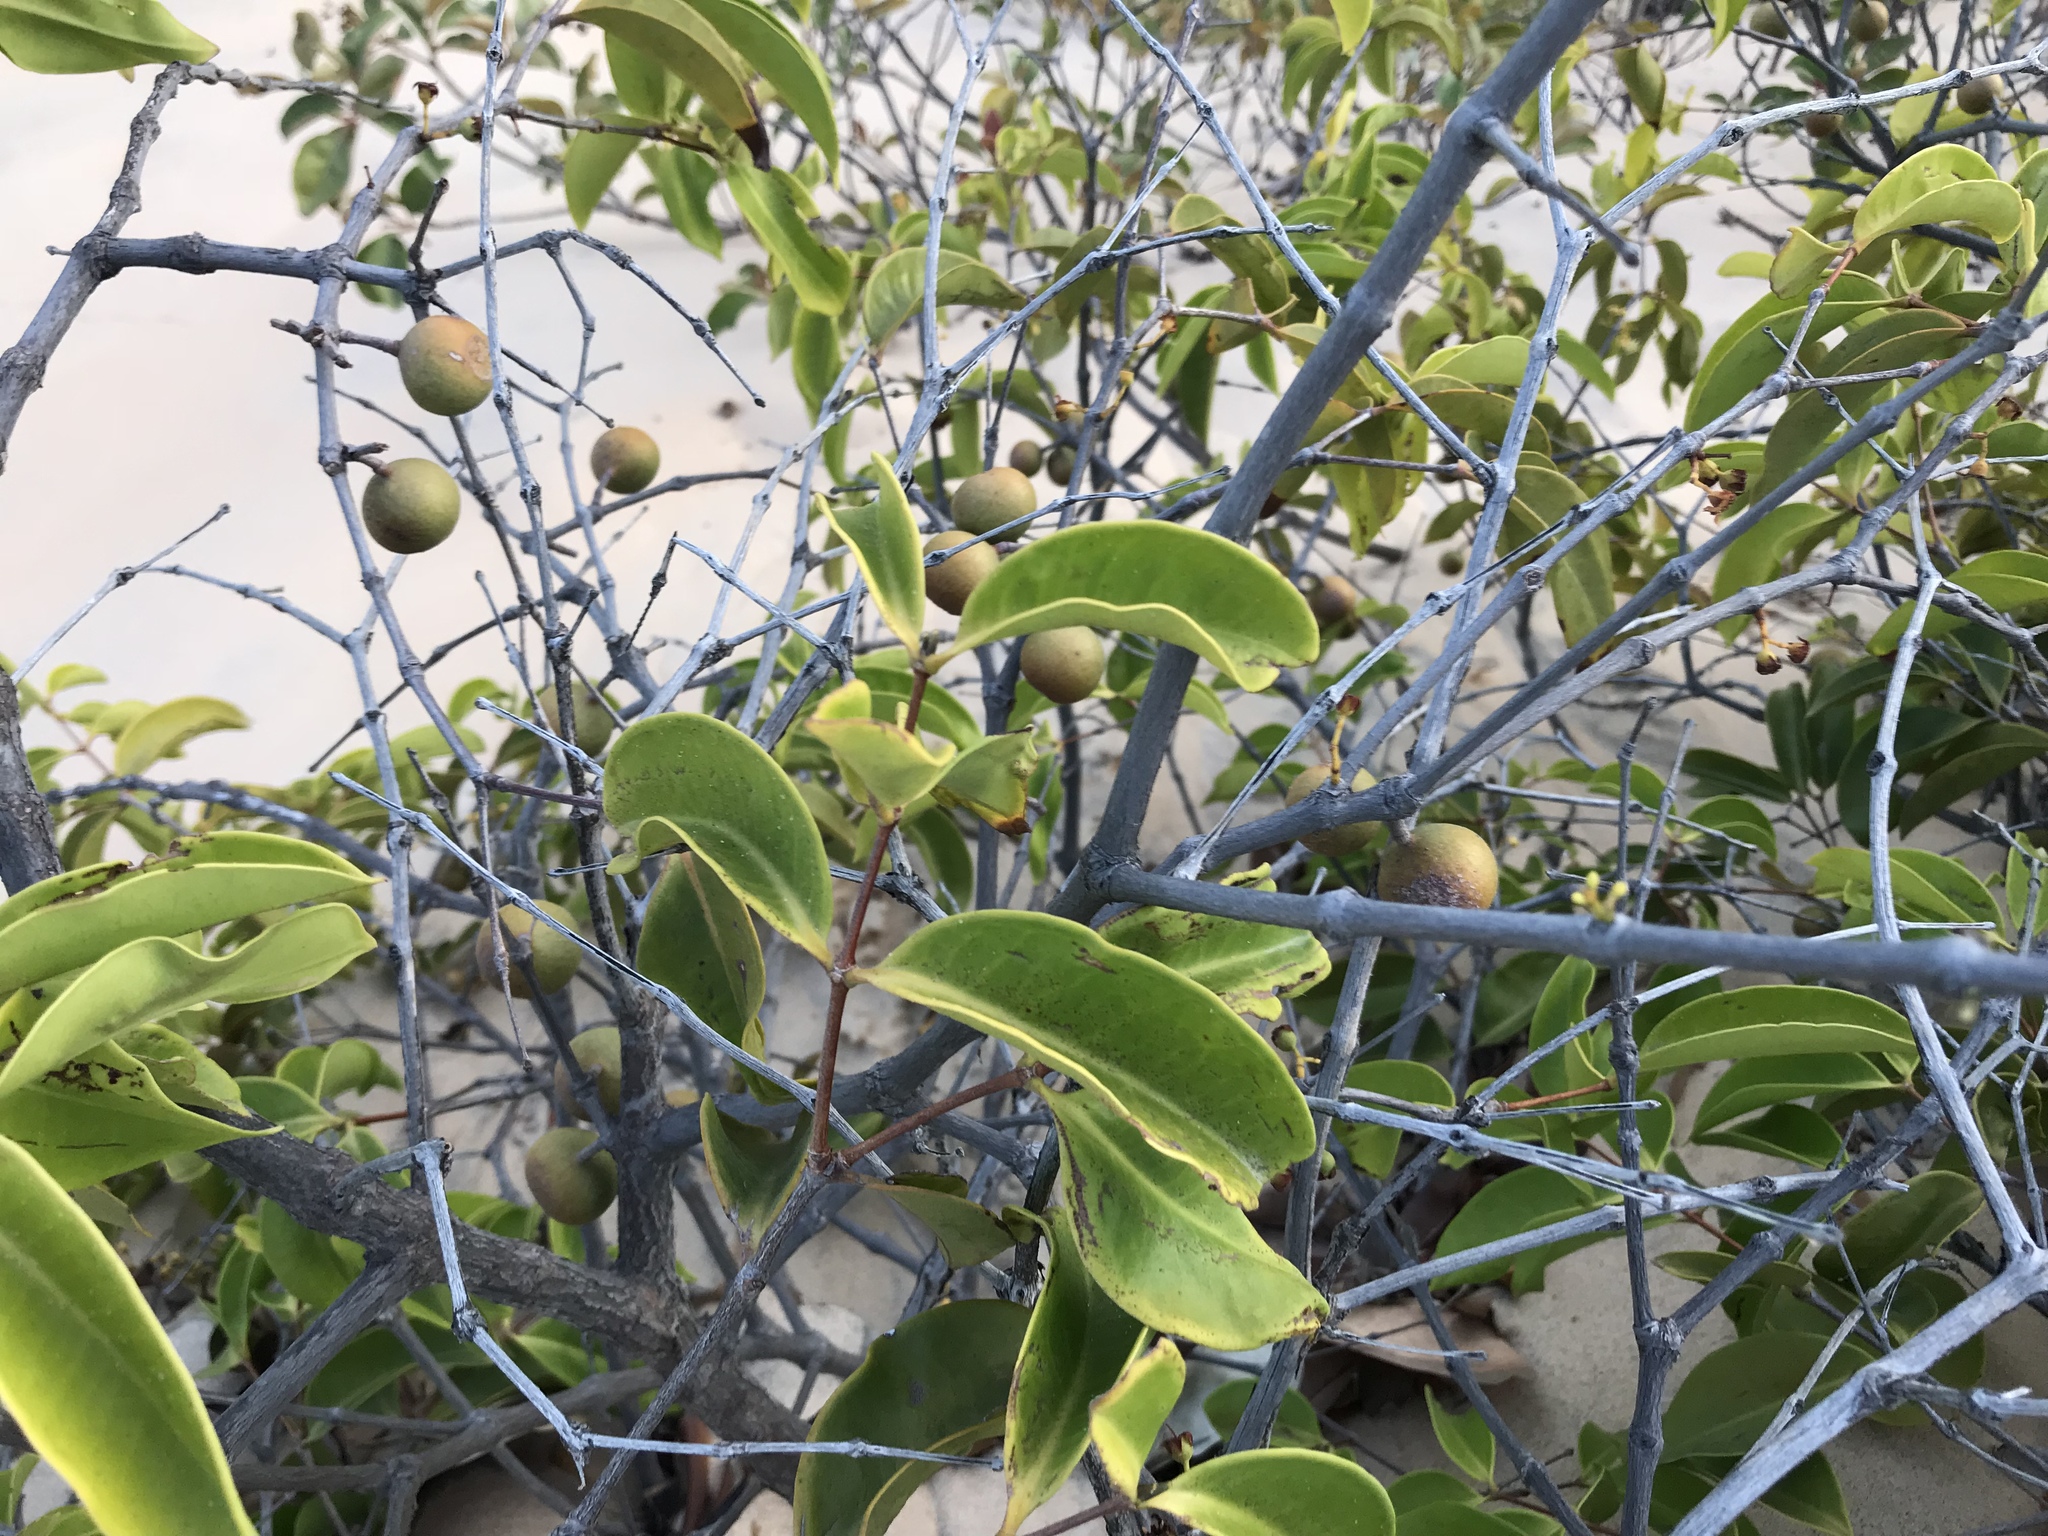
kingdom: Plantae
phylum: Tracheophyta
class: Magnoliopsida
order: Myrtales
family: Melastomataceae
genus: Mouriri
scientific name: Mouriri cearensis
